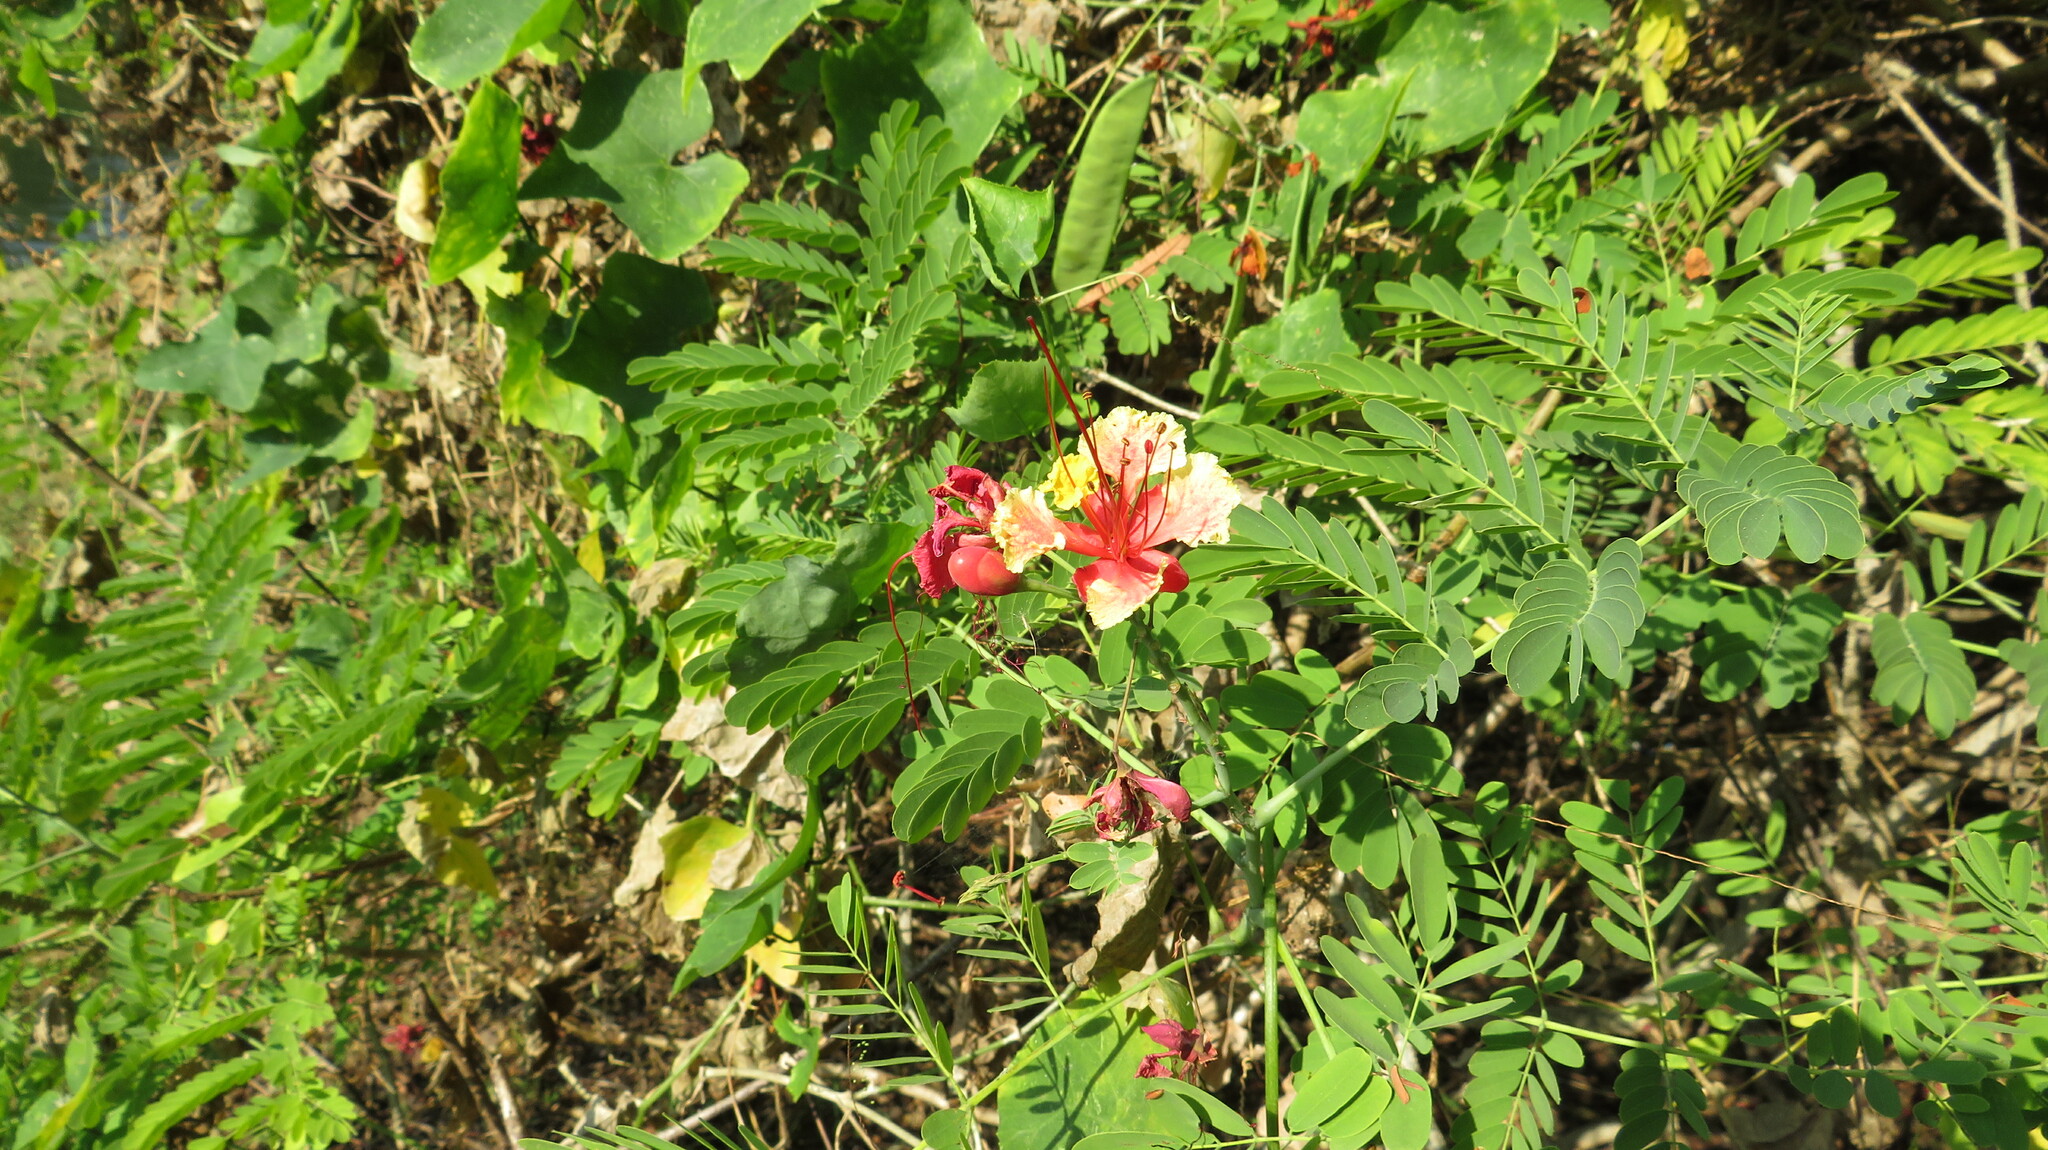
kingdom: Plantae
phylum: Tracheophyta
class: Magnoliopsida
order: Fabales
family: Fabaceae
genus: Caesalpinia
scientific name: Caesalpinia pulcherrima
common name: Pride-of-barbados
